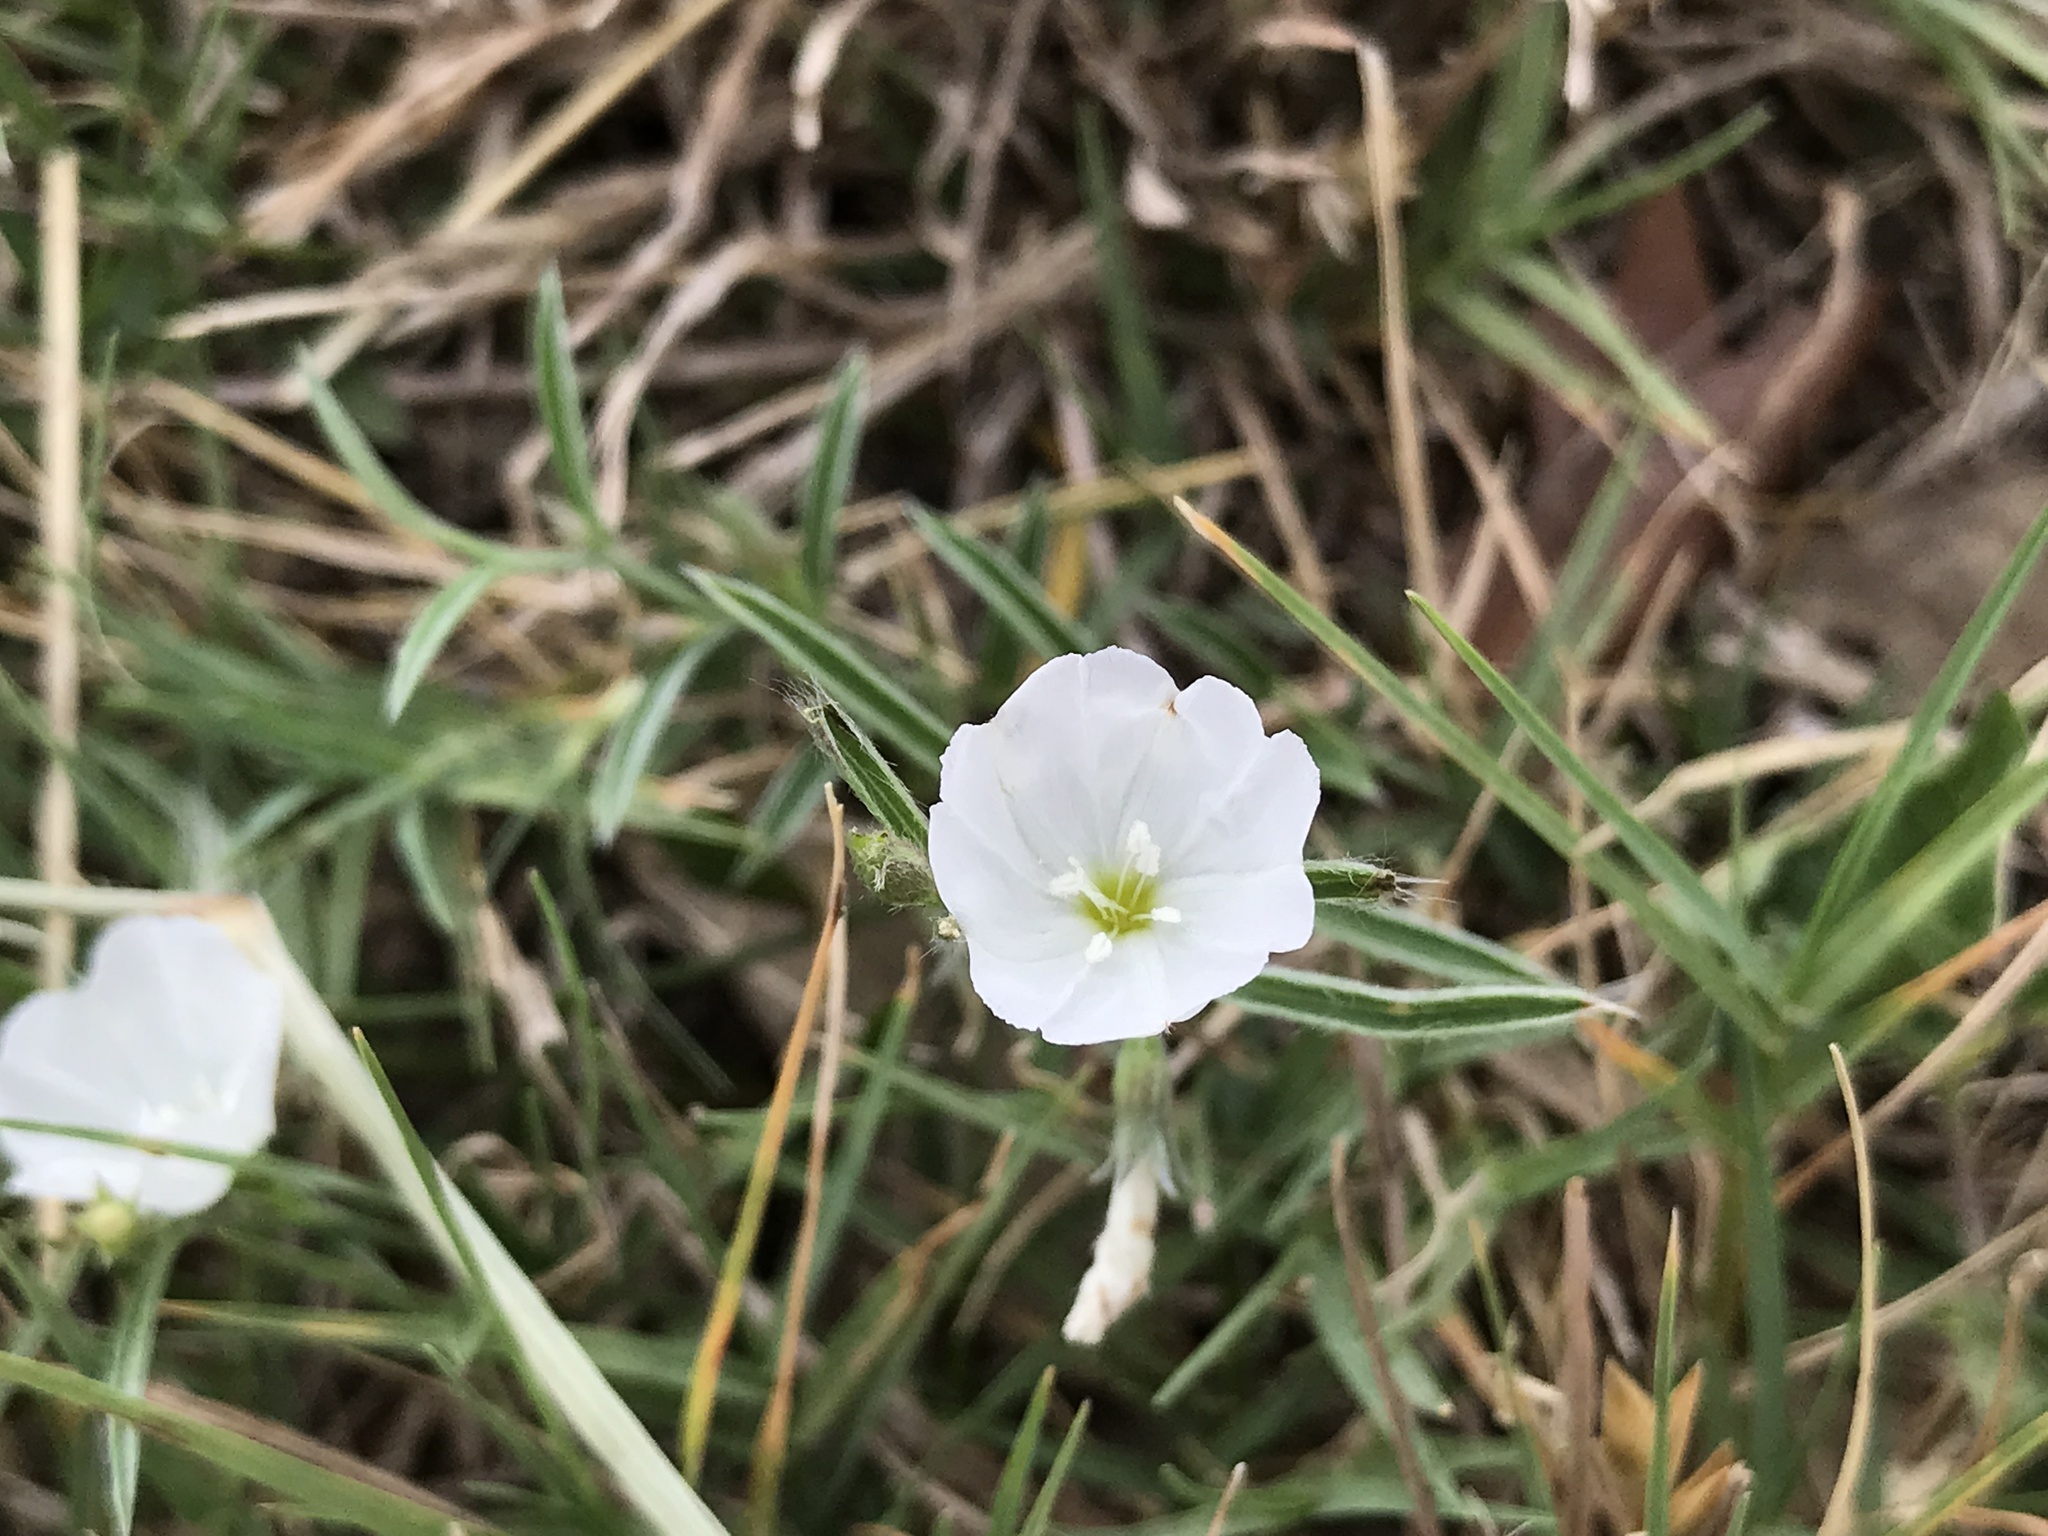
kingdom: Plantae
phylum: Tracheophyta
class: Magnoliopsida
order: Solanales
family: Convolvulaceae
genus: Evolvulus
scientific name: Evolvulus sericeus
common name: Blue dots
